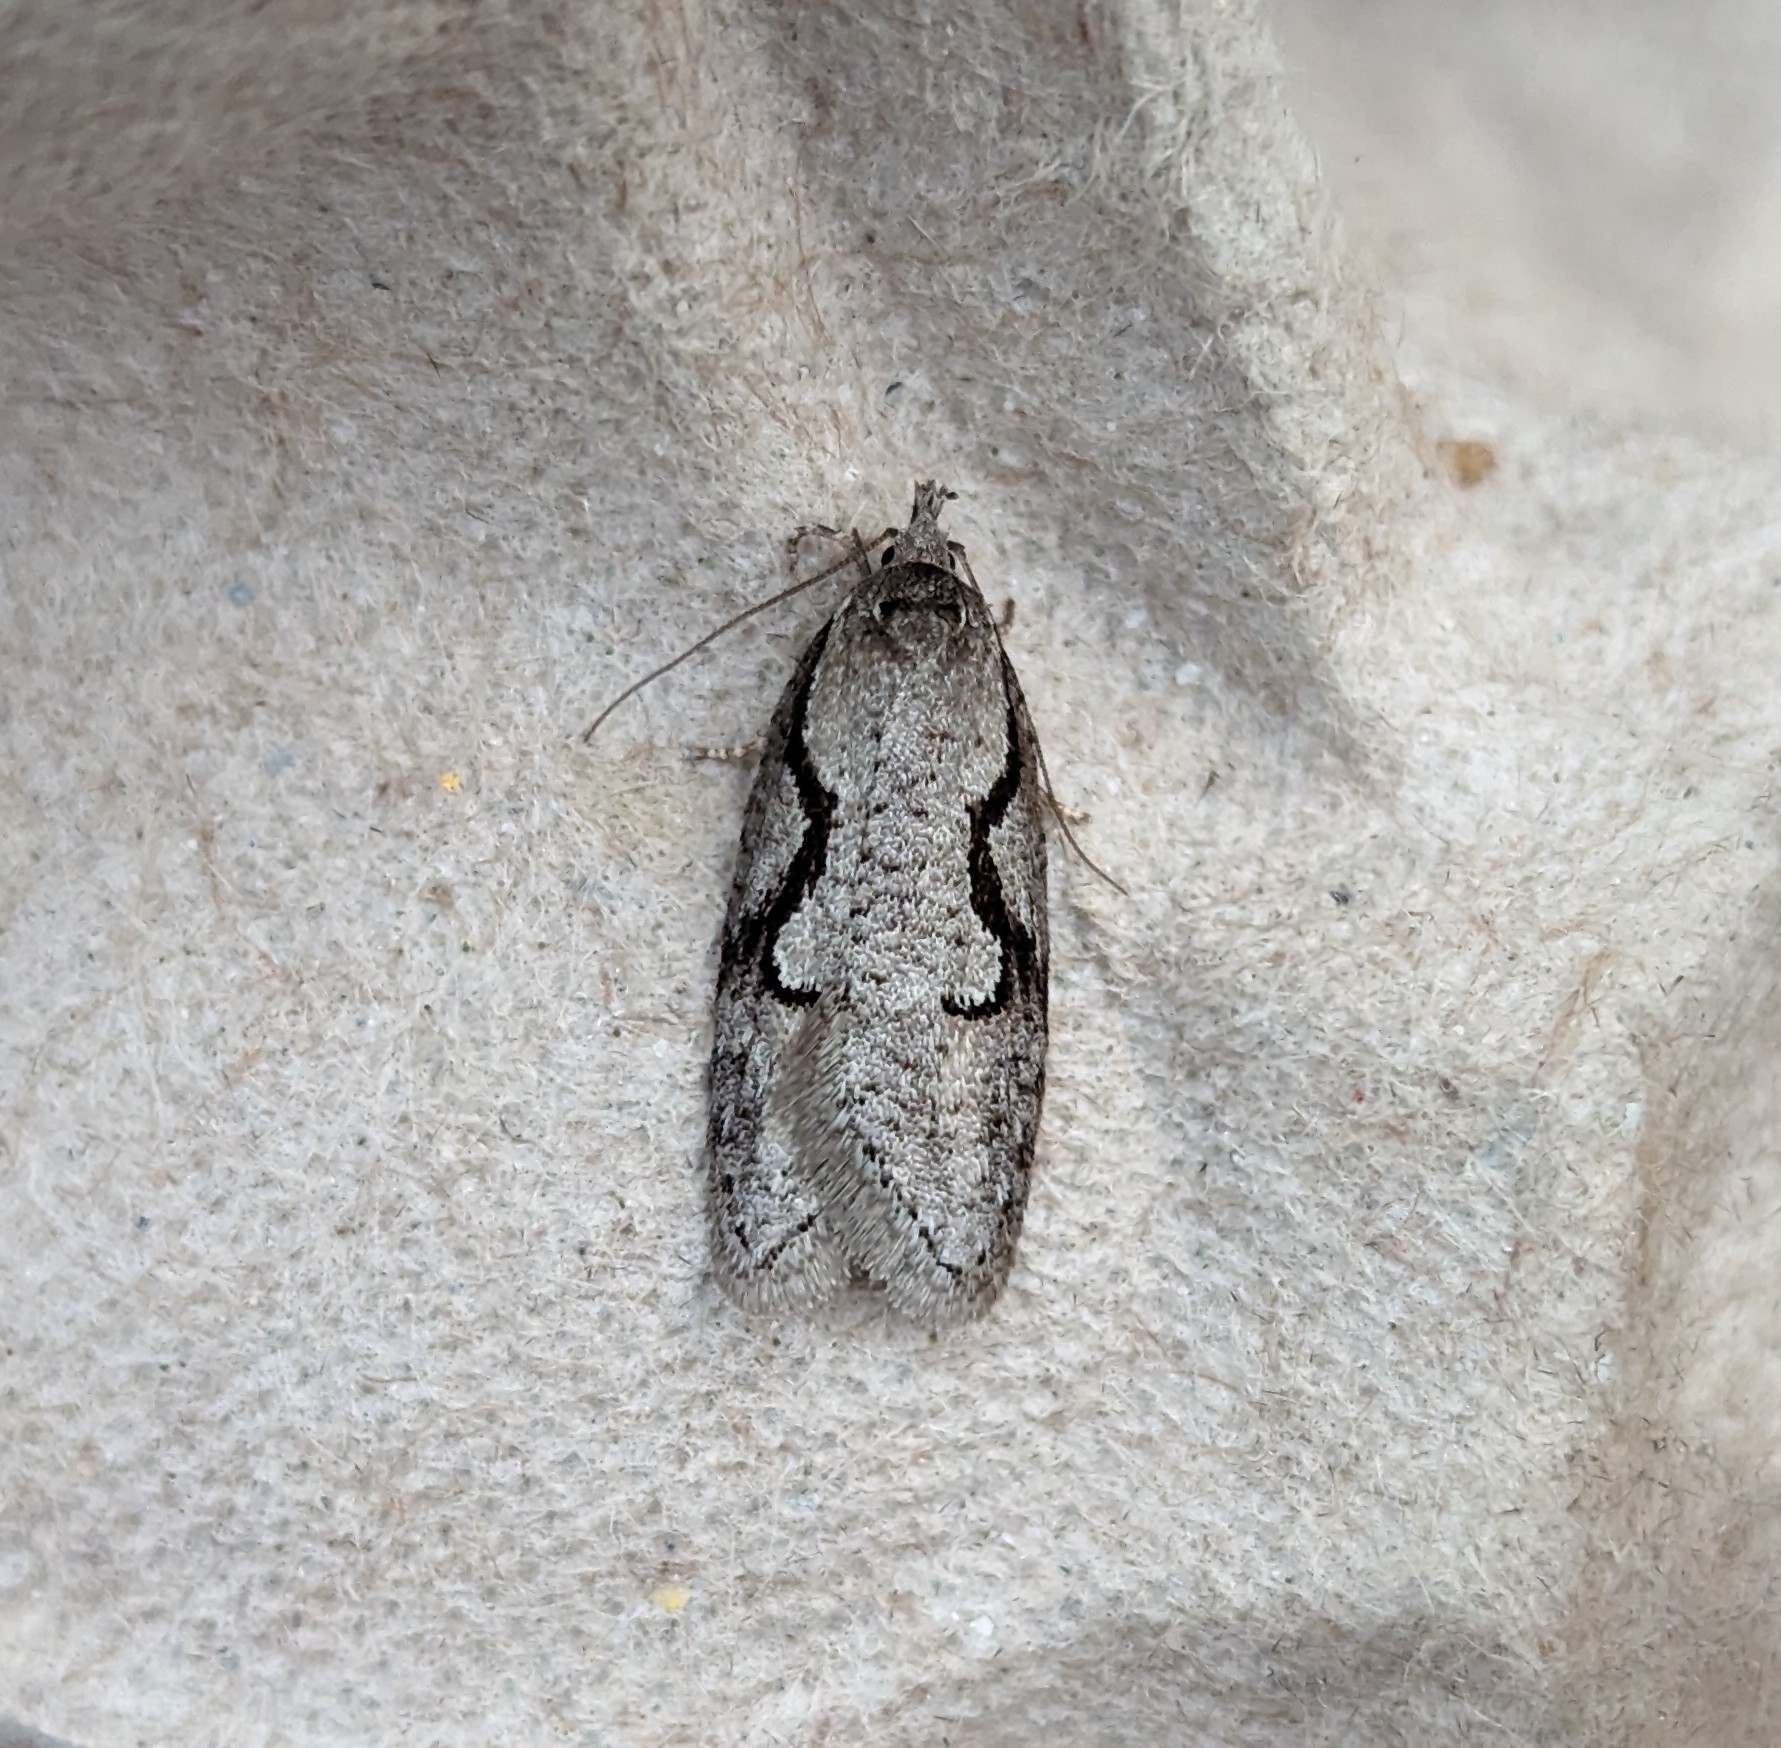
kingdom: Animalia
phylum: Arthropoda
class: Insecta
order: Lepidoptera
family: Depressariidae
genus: Semioscopis
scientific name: Semioscopis packardella
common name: Packard's concealer moth
